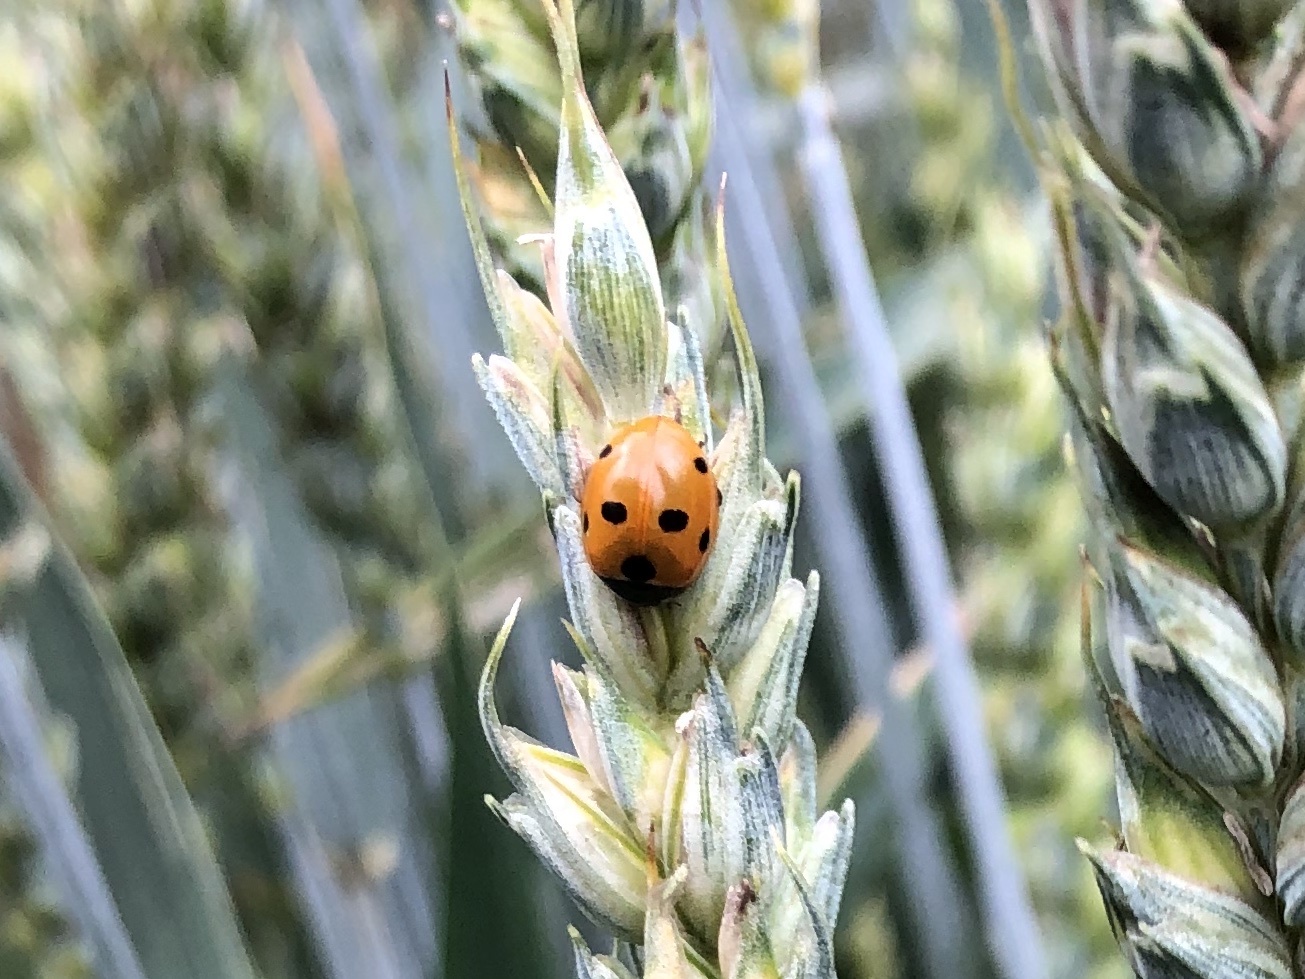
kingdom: Animalia
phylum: Arthropoda
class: Insecta
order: Coleoptera
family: Coccinellidae
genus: Coccinella
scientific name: Coccinella septempunctata
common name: Sevenspotted lady beetle
